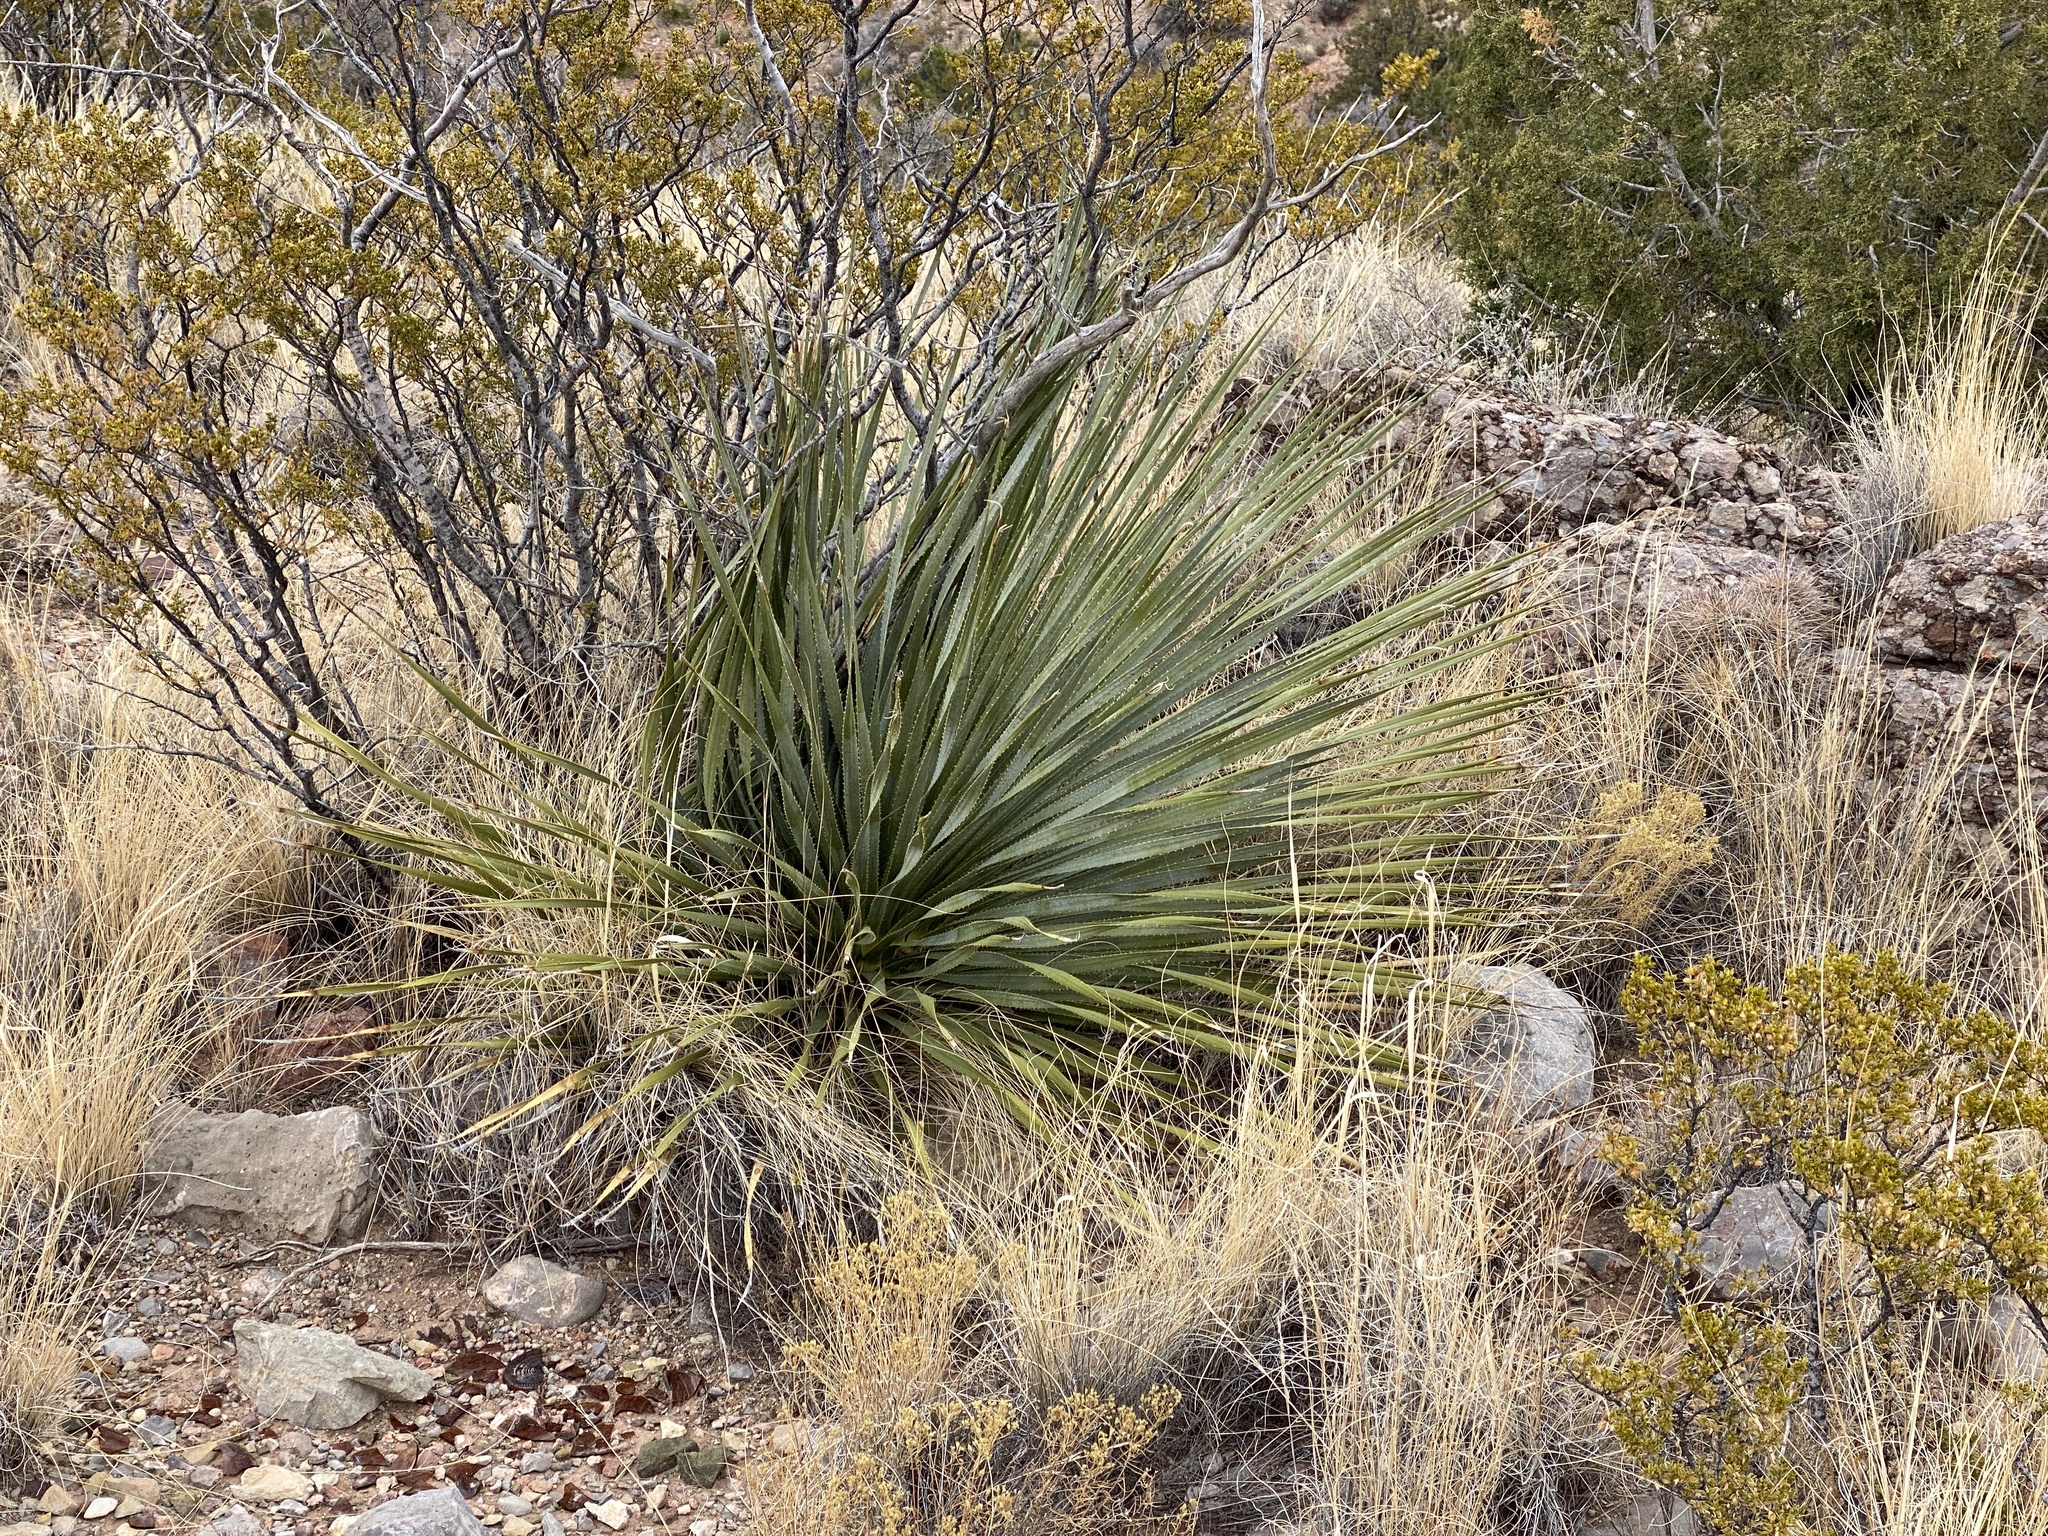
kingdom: Plantae
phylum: Tracheophyta
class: Liliopsida
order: Asparagales
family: Asparagaceae
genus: Dasylirion
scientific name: Dasylirion wheeleri
